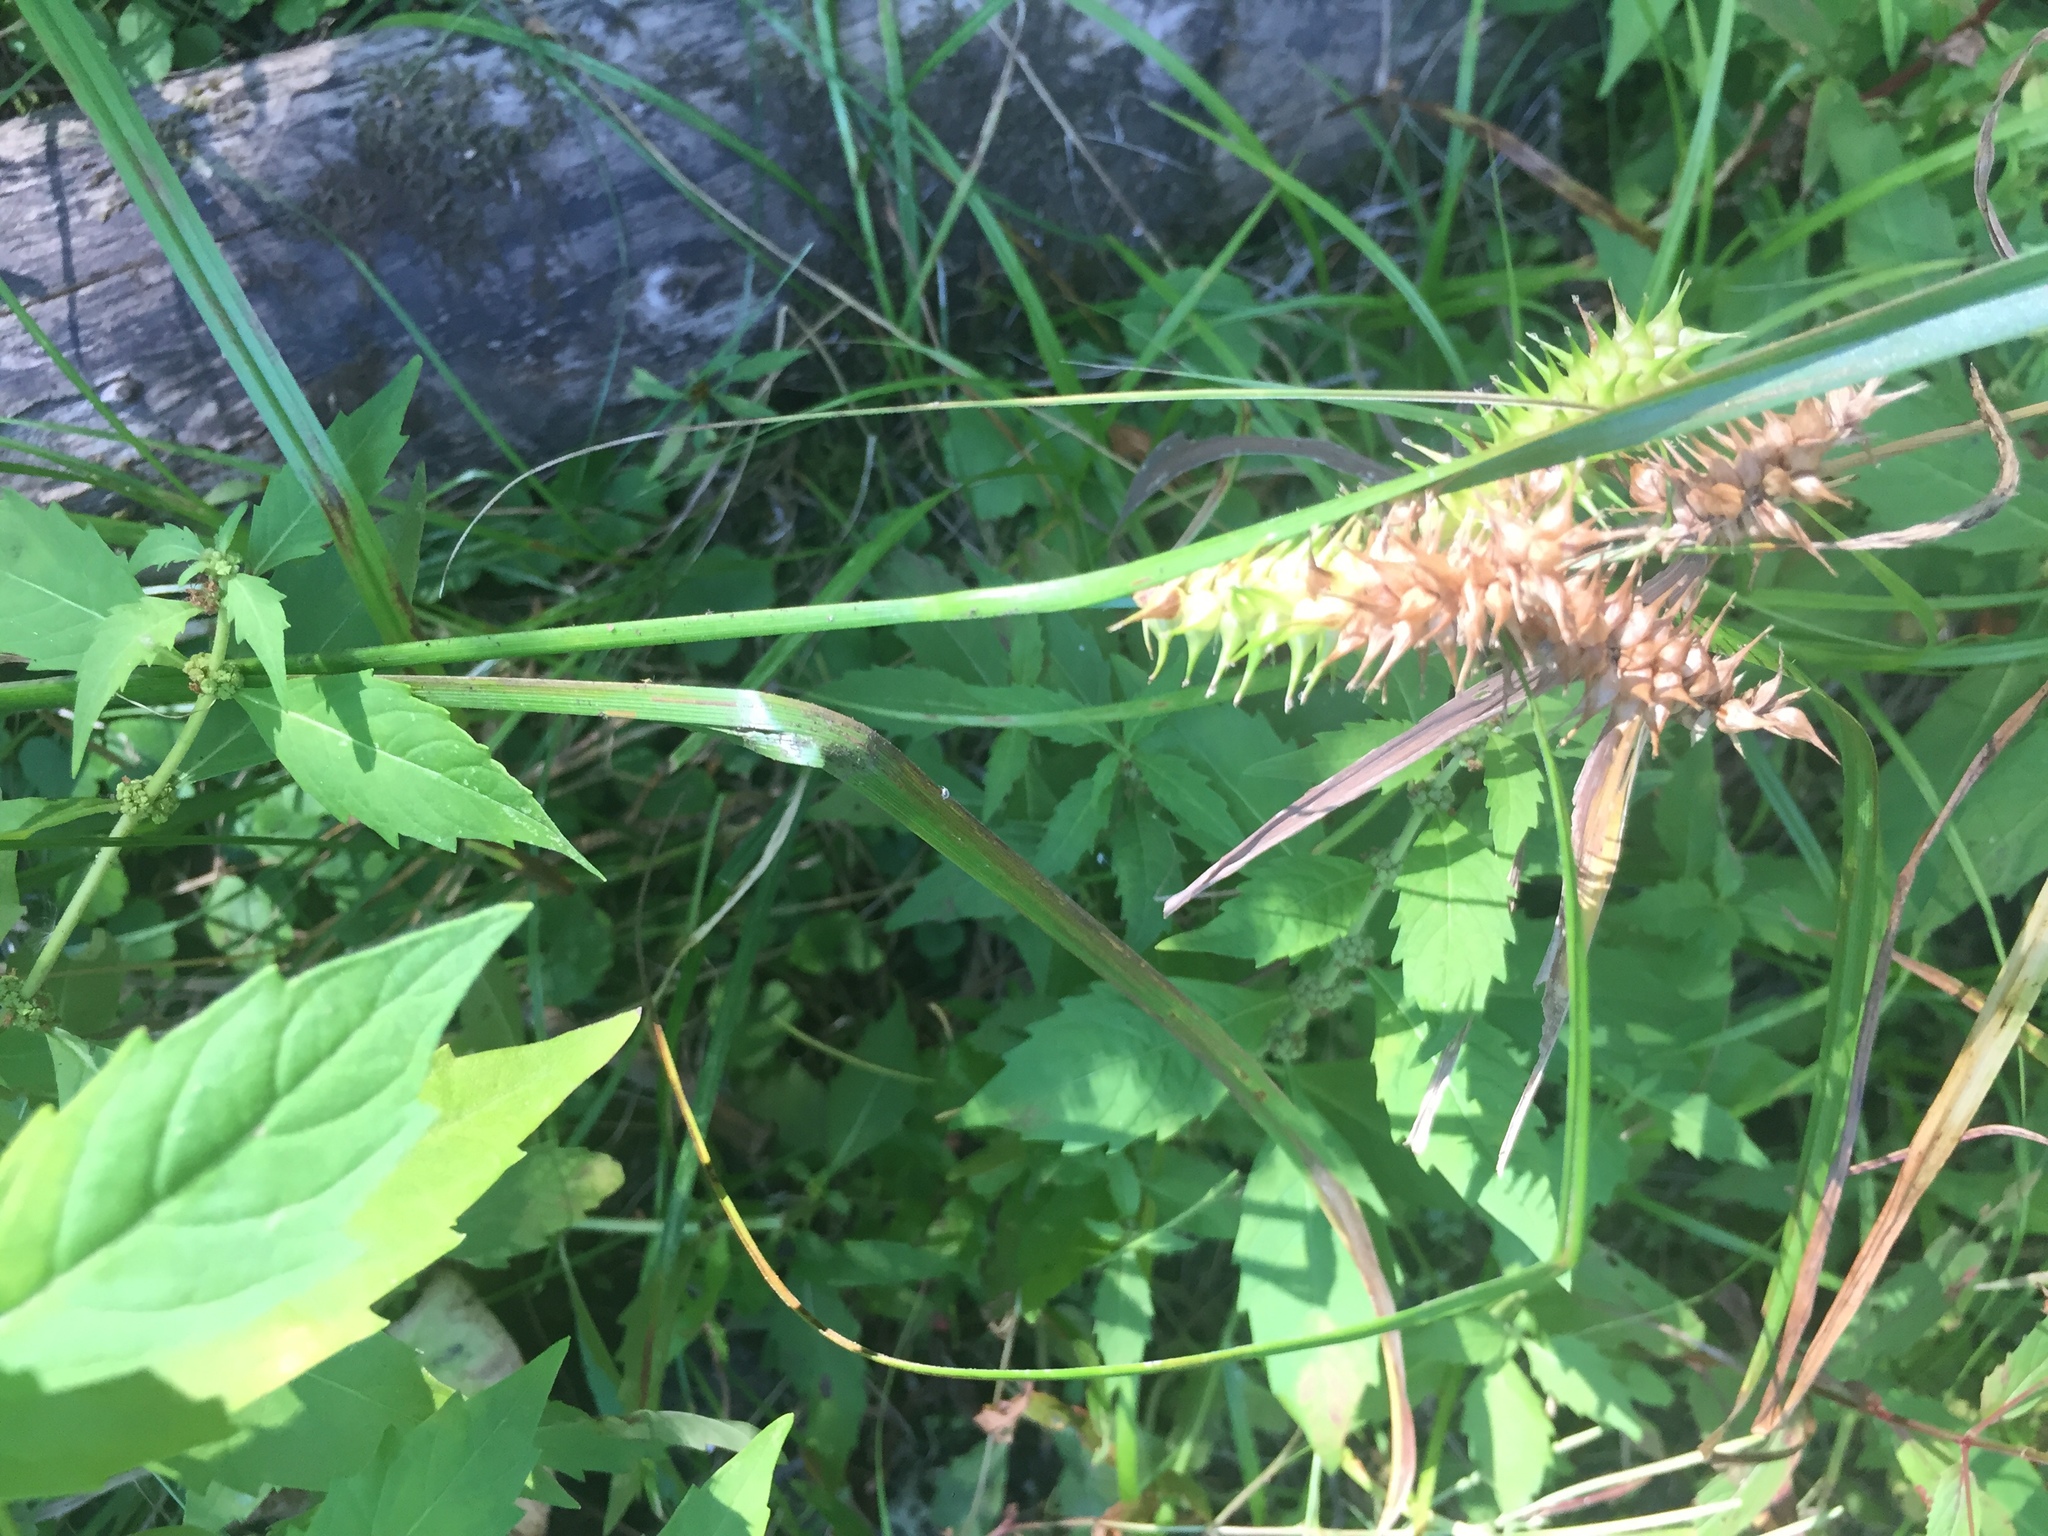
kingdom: Plantae
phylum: Tracheophyta
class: Liliopsida
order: Poales
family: Cyperaceae
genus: Carex
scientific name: Carex retrorsa
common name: Knot-sheath sedge
